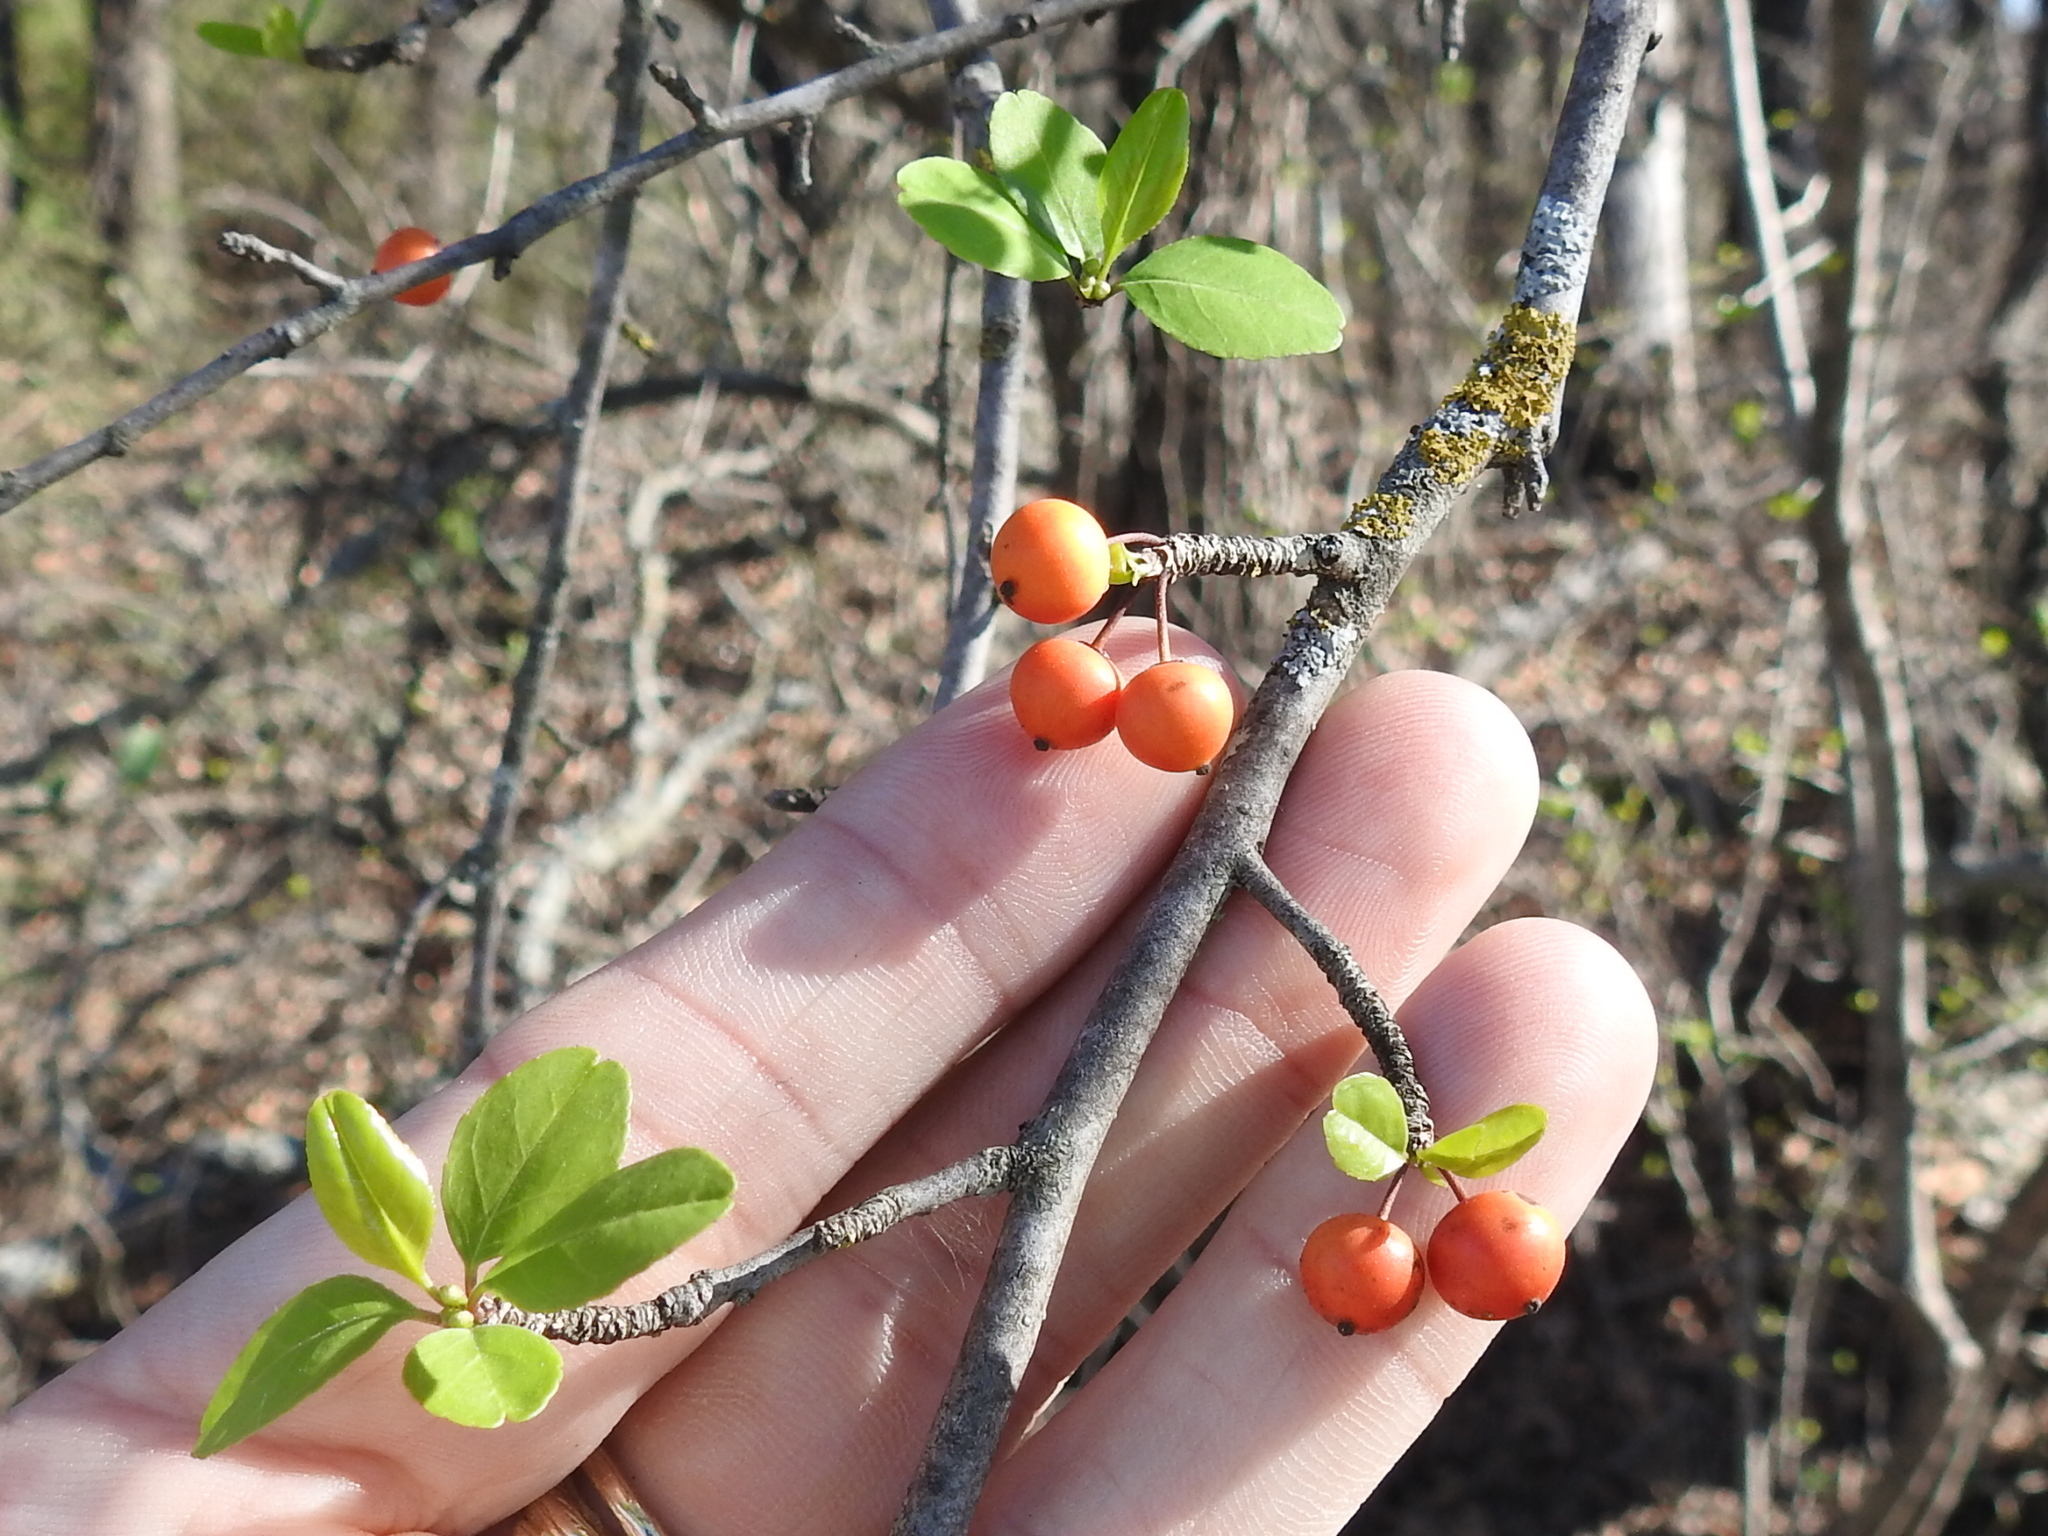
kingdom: Plantae
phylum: Tracheophyta
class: Magnoliopsida
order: Aquifoliales
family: Aquifoliaceae
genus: Ilex
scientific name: Ilex decidua
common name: Possum-haw
